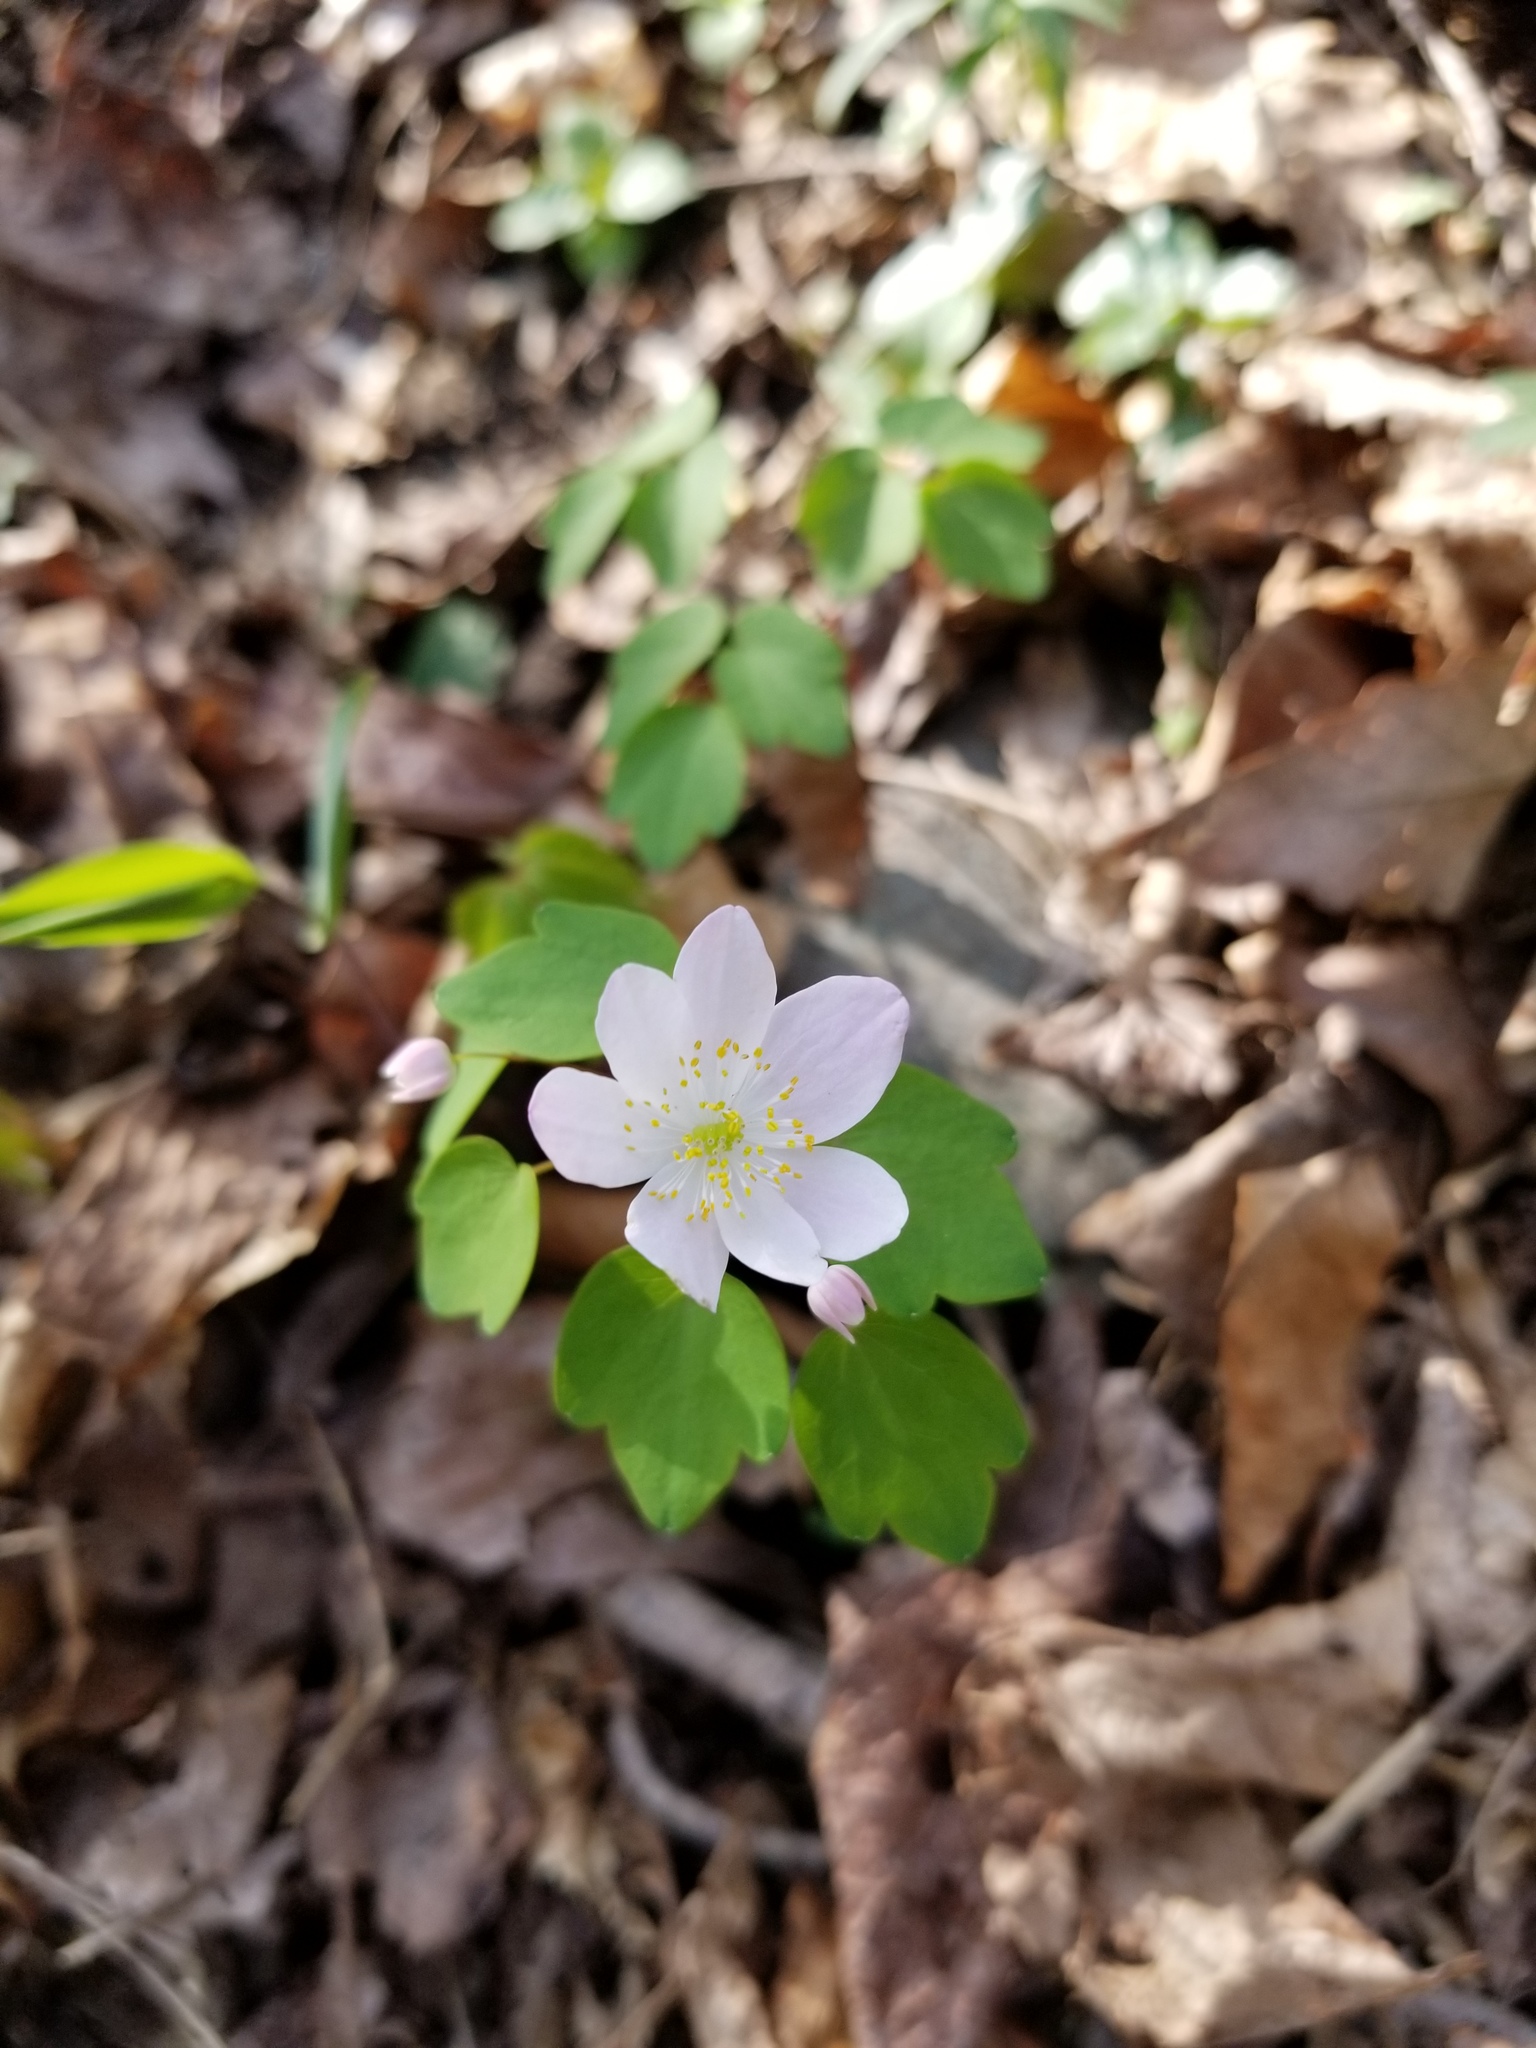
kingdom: Plantae
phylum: Tracheophyta
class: Magnoliopsida
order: Ranunculales
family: Ranunculaceae
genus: Thalictrum
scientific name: Thalictrum thalictroides
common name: Rue-anemone
